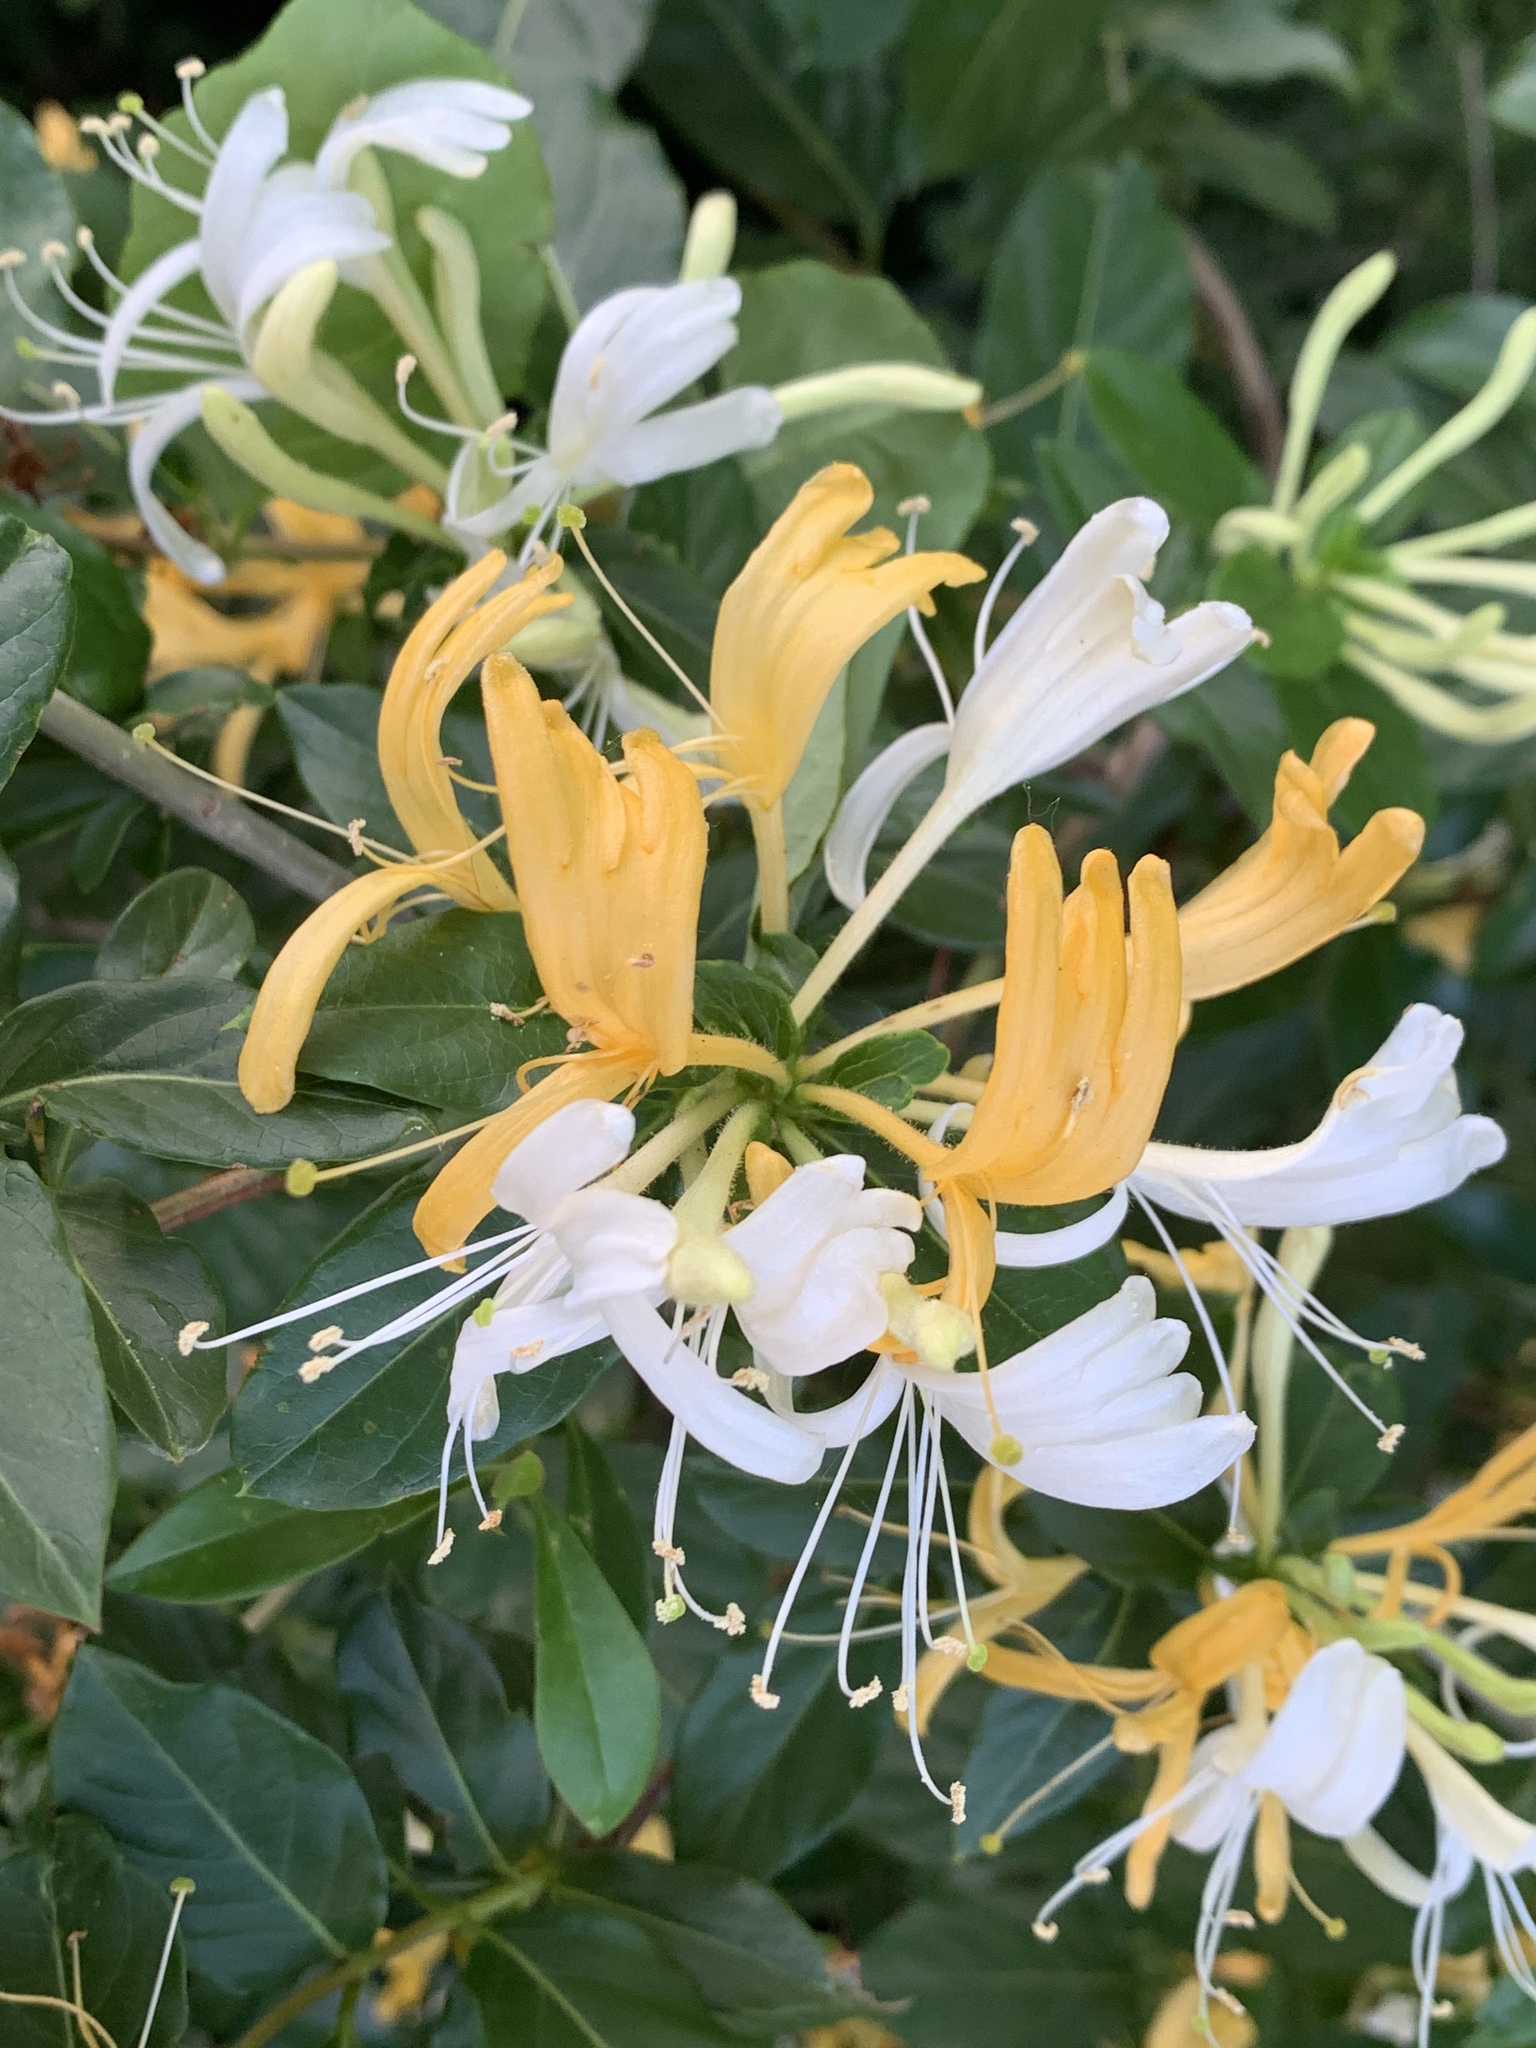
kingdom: Plantae
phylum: Tracheophyta
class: Magnoliopsida
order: Dipsacales
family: Caprifoliaceae
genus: Lonicera
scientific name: Lonicera japonica
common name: Japanese honeysuckle
